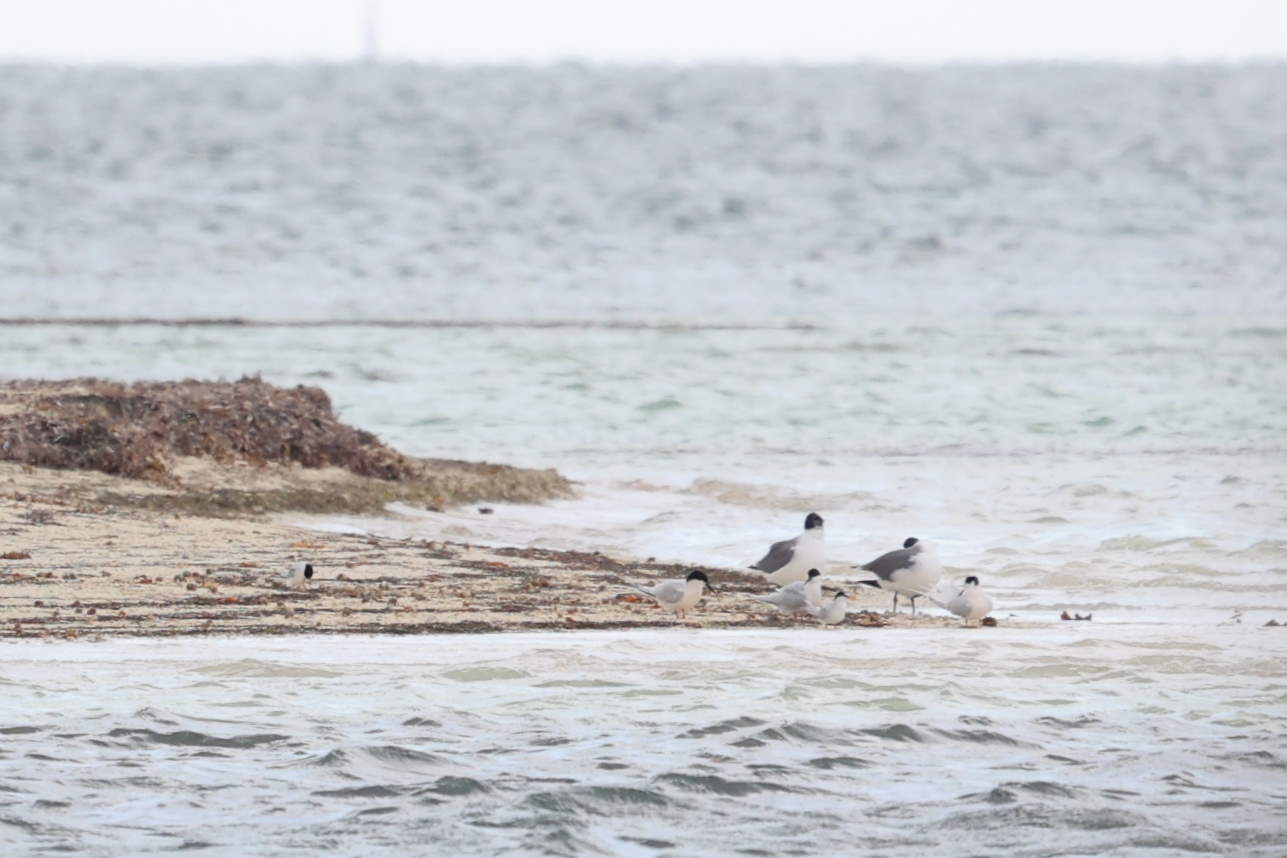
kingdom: Animalia
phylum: Chordata
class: Aves
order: Charadriiformes
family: Laridae
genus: Sternula
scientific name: Sternula antillarum
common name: Least tern
